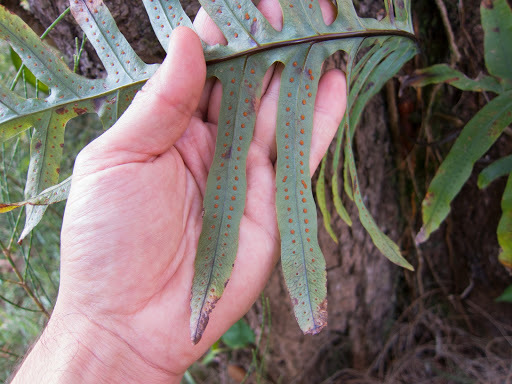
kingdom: Plantae
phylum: Tracheophyta
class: Polypodiopsida
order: Polypodiales
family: Polypodiaceae
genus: Phlebodium
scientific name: Phlebodium aureum
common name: Gold-foot fern
